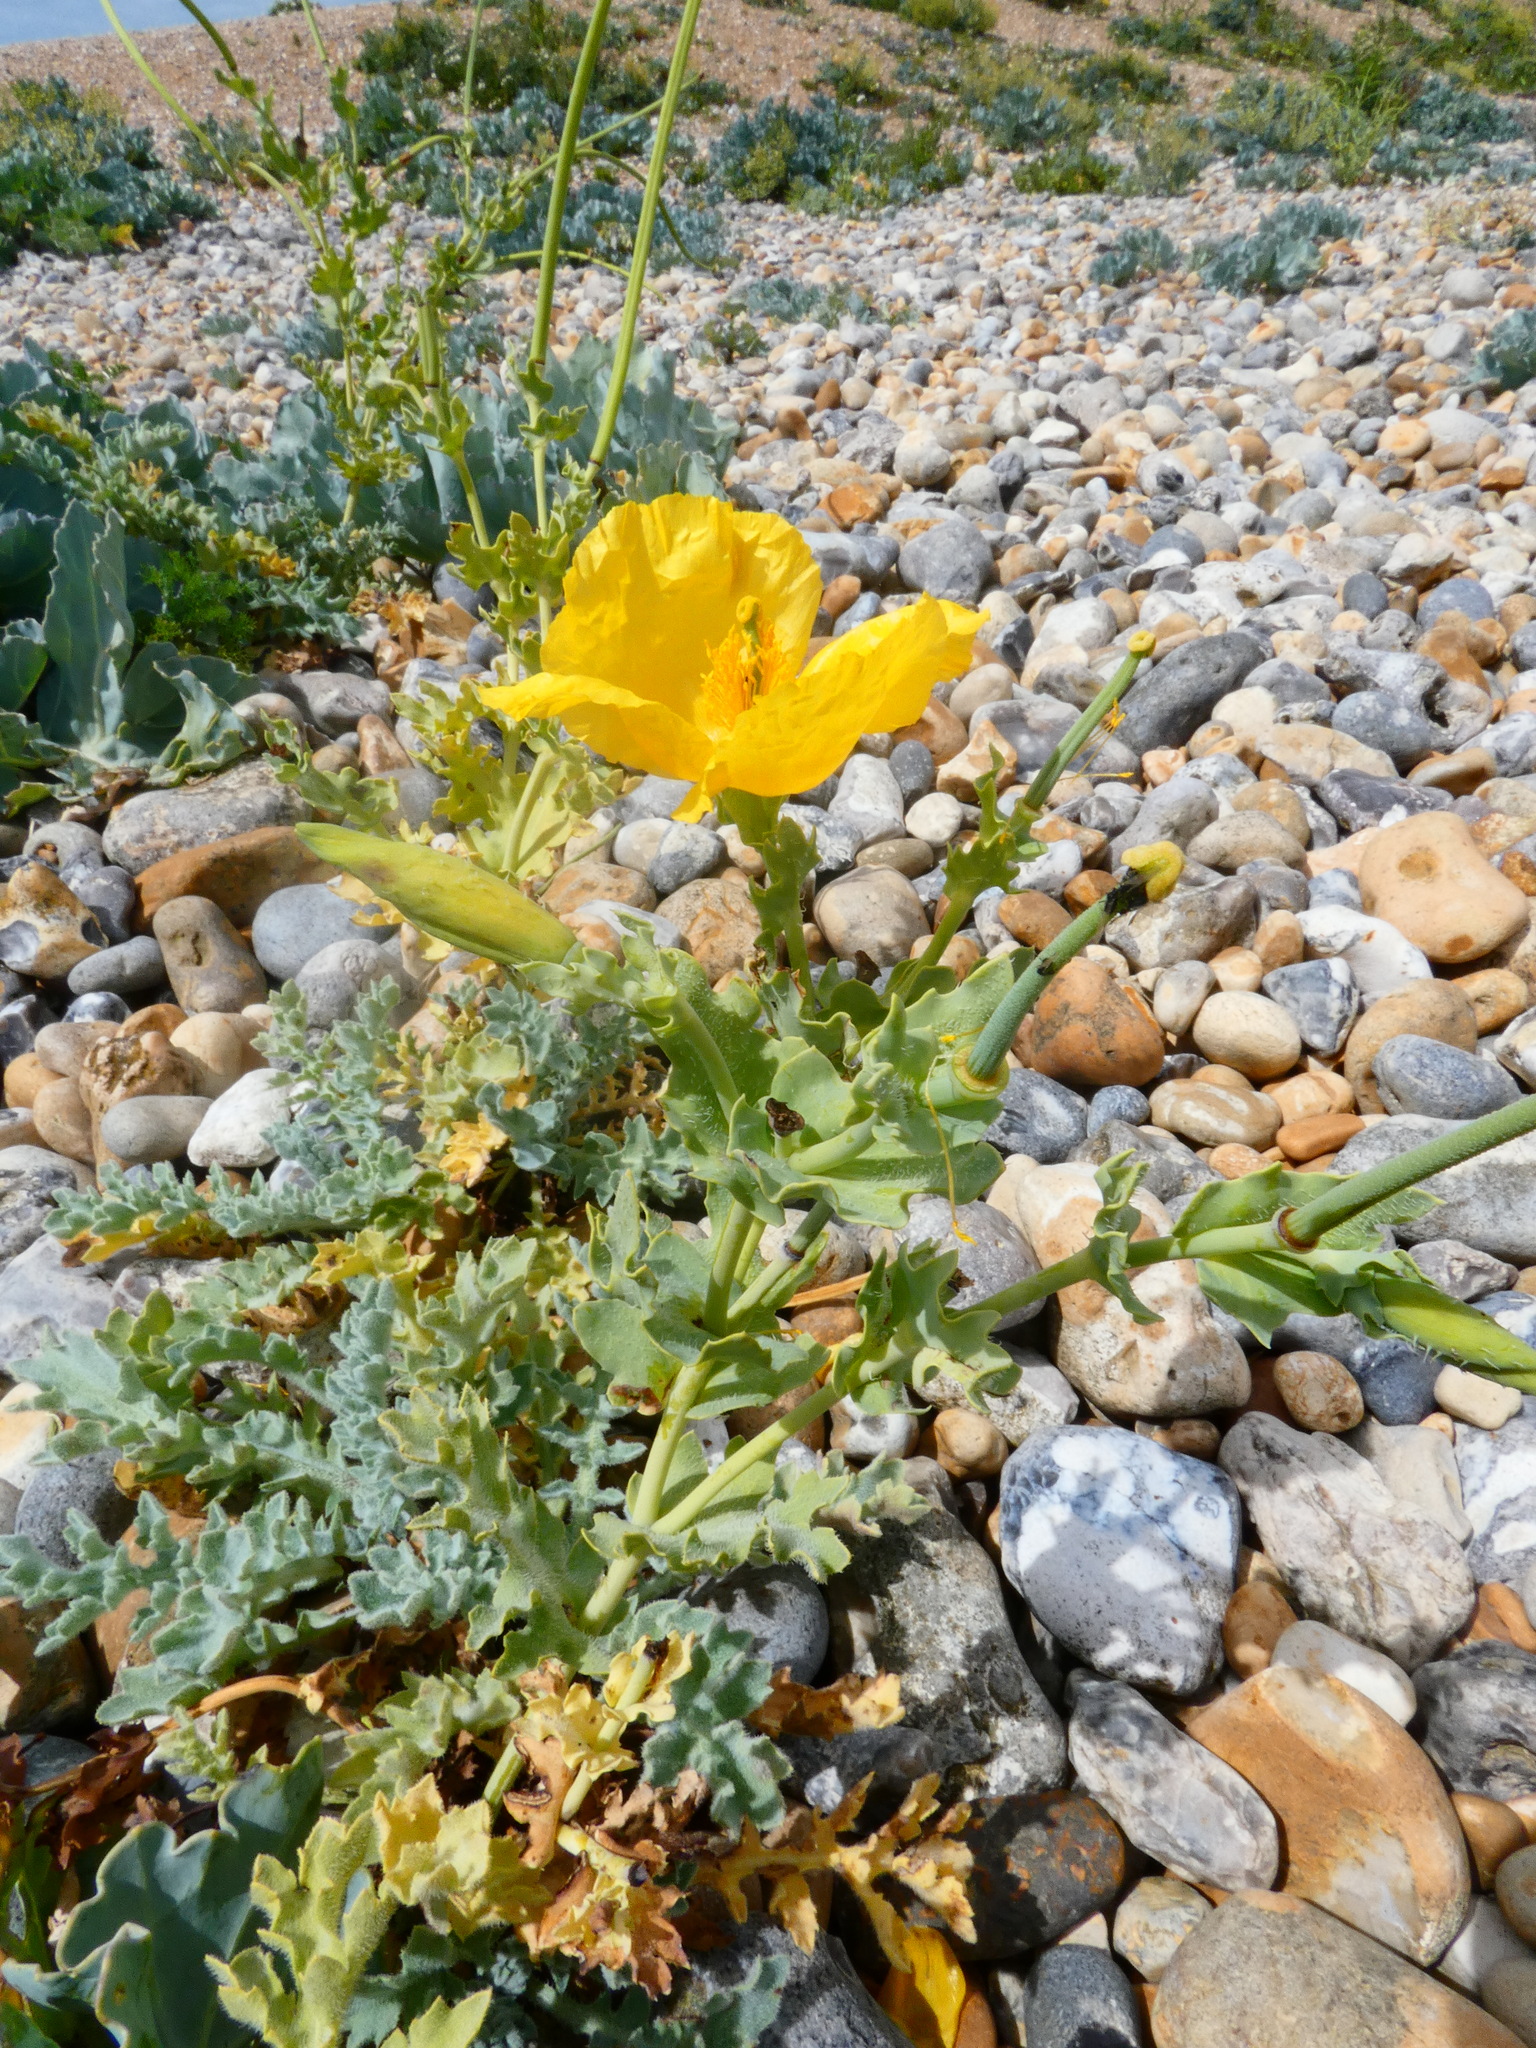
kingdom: Plantae
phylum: Tracheophyta
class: Magnoliopsida
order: Ranunculales
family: Papaveraceae
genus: Glaucium
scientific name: Glaucium flavum
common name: Yellow horned-poppy
